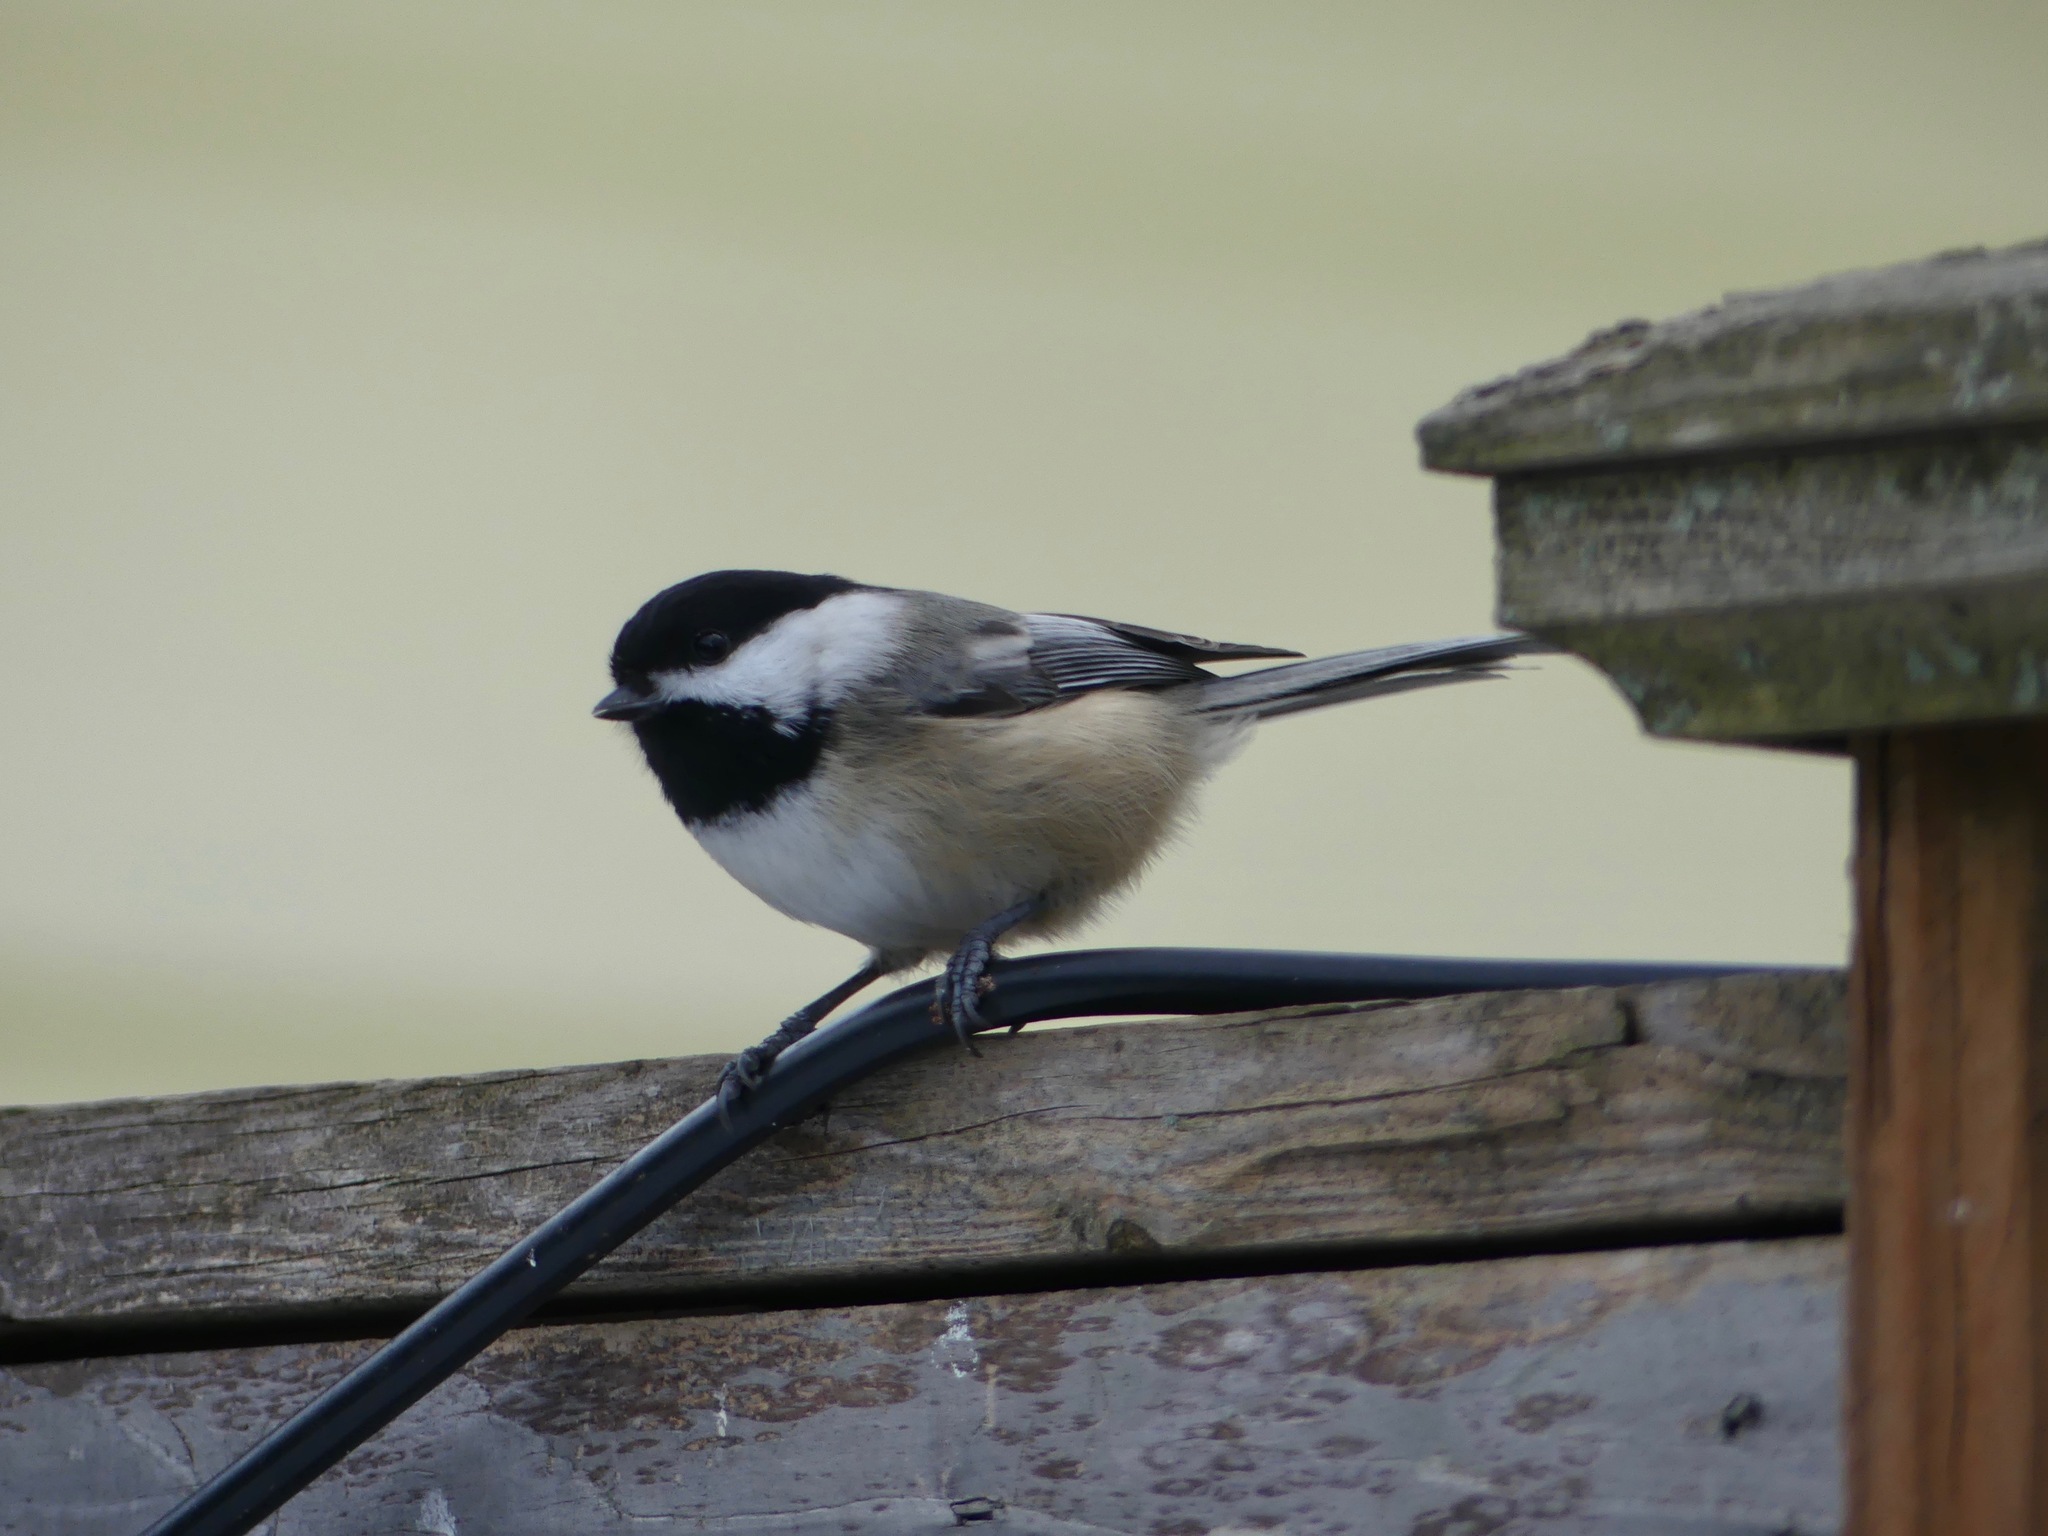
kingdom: Animalia
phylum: Chordata
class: Aves
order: Passeriformes
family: Paridae
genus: Poecile
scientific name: Poecile atricapillus
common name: Black-capped chickadee
